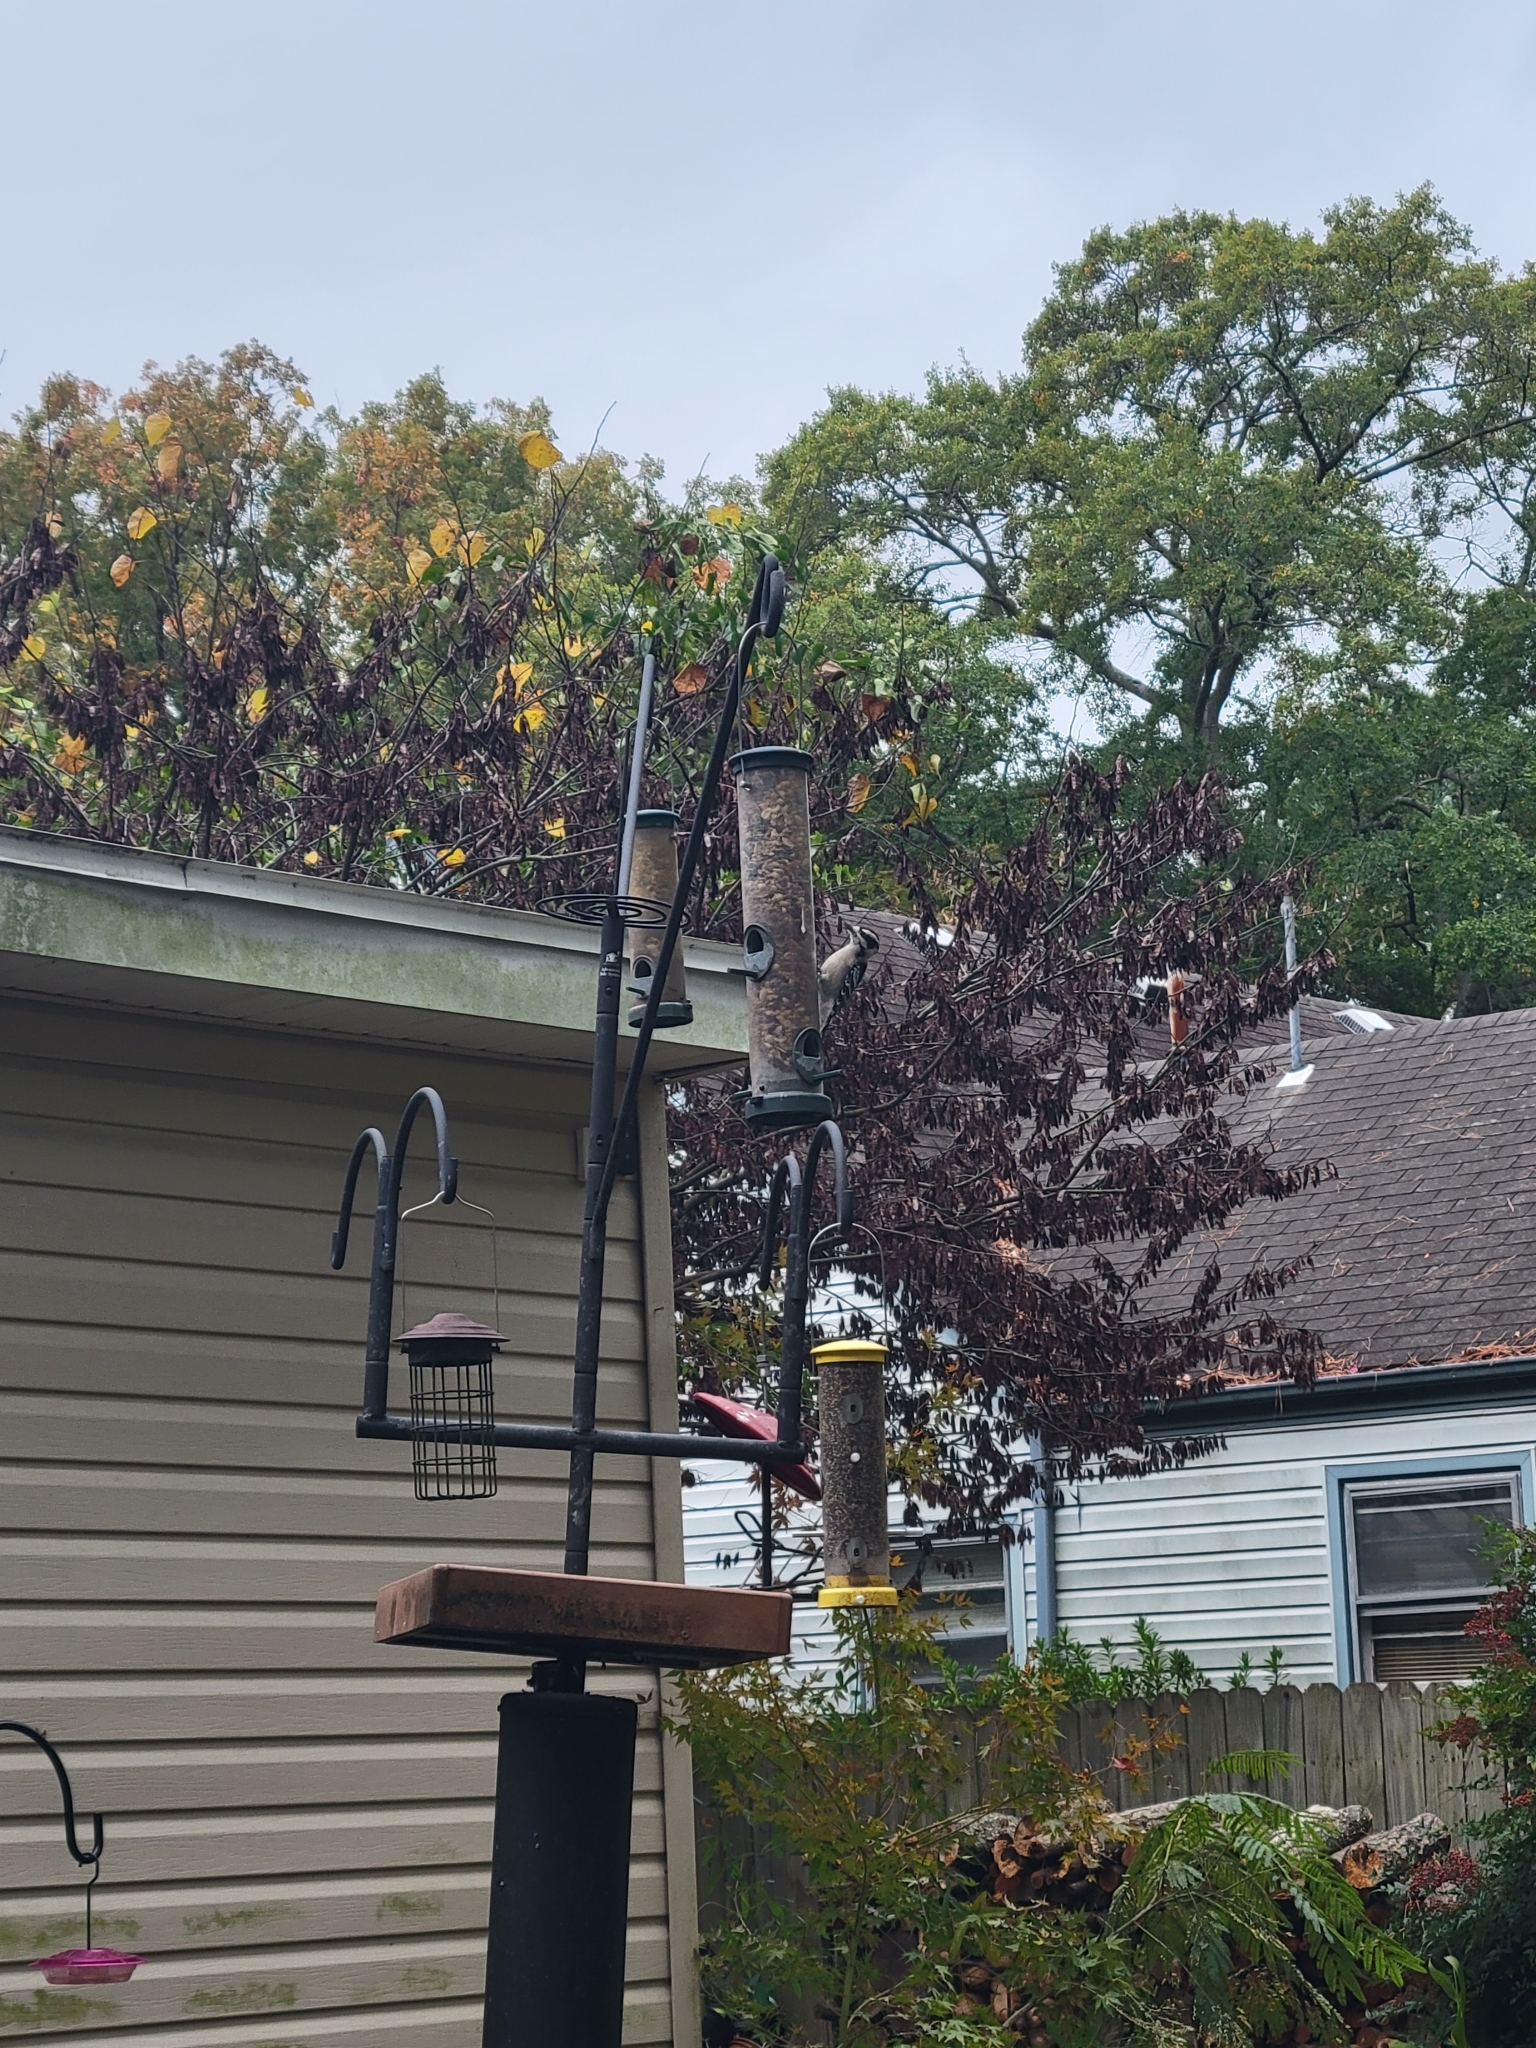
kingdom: Animalia
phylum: Chordata
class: Aves
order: Piciformes
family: Picidae
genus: Dryobates
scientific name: Dryobates pubescens
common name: Downy woodpecker
